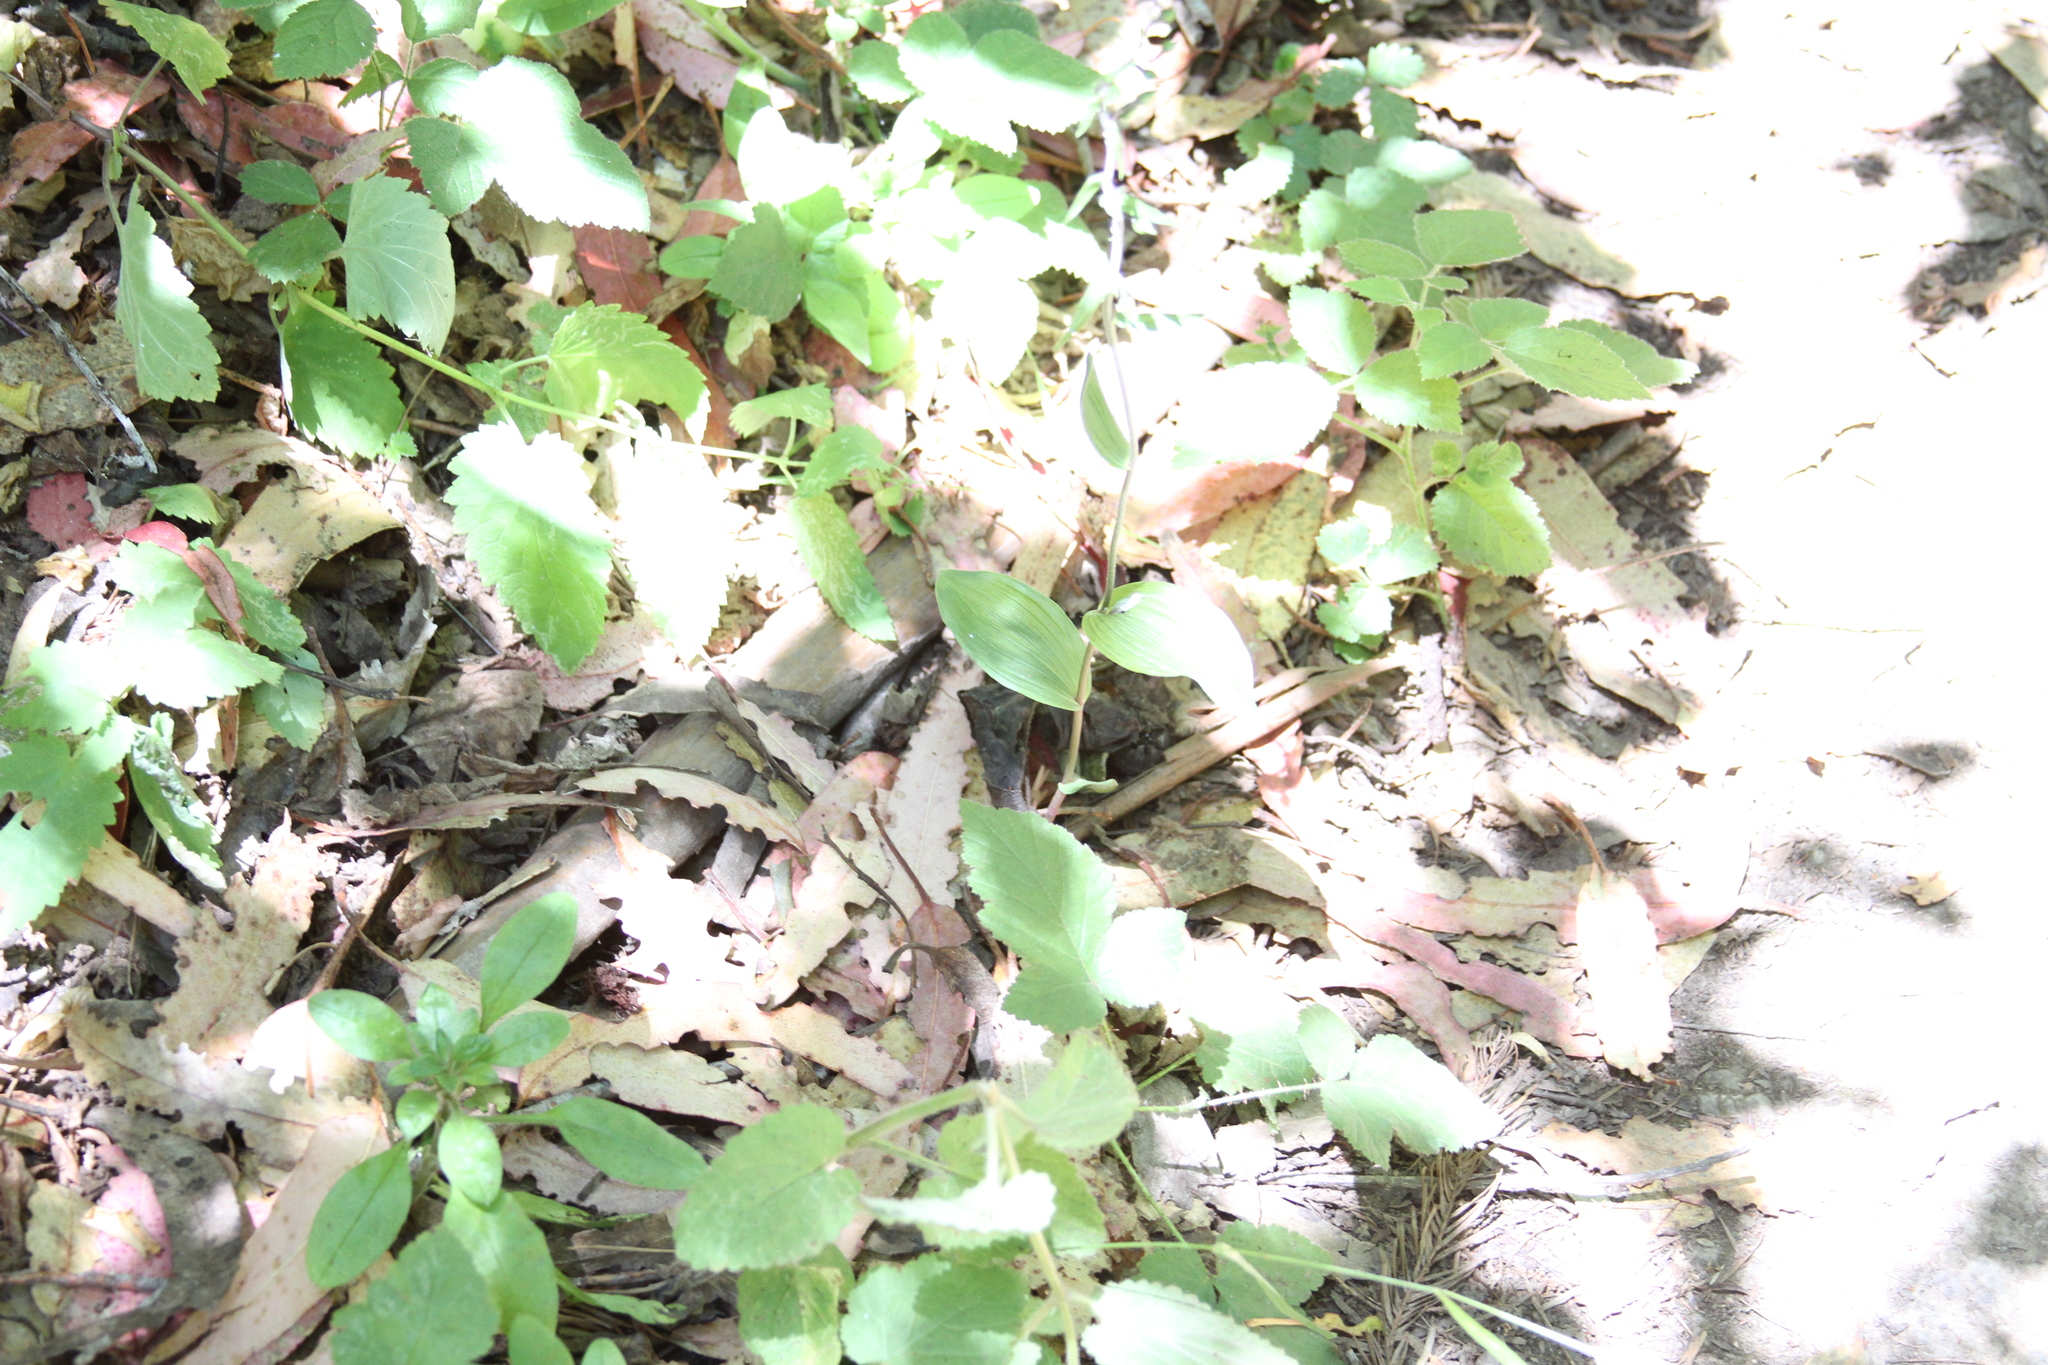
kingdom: Plantae
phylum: Tracheophyta
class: Liliopsida
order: Asparagales
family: Orchidaceae
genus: Epipactis
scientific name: Epipactis helleborine
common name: Broad-leaved helleborine
